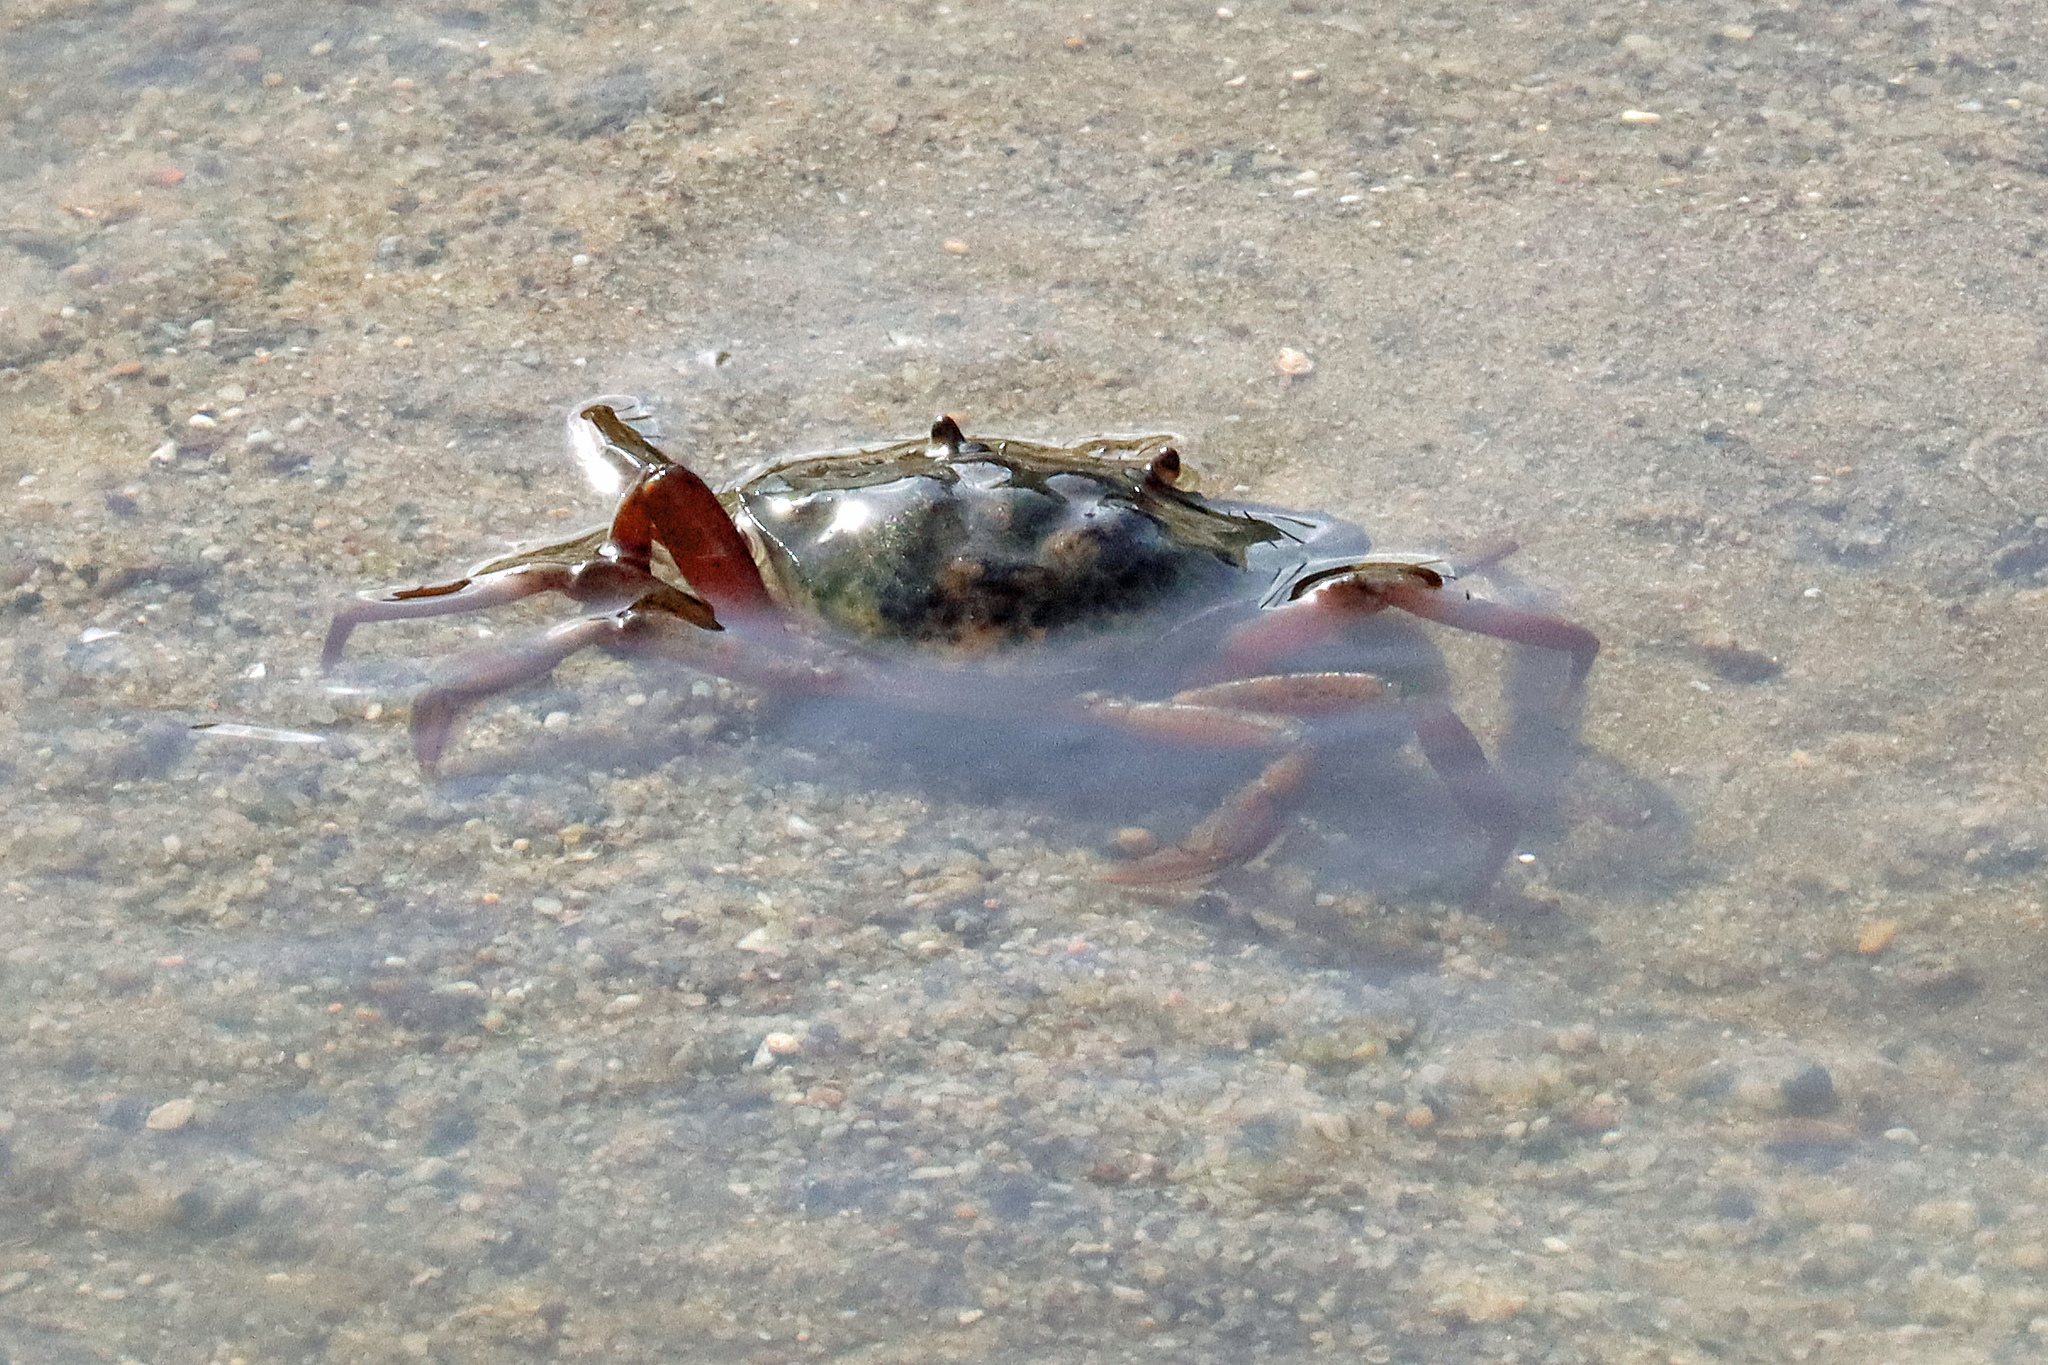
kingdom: Animalia
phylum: Arthropoda
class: Malacostraca
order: Decapoda
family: Carcinidae
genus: Carcinus
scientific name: Carcinus maenas
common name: European green crab
